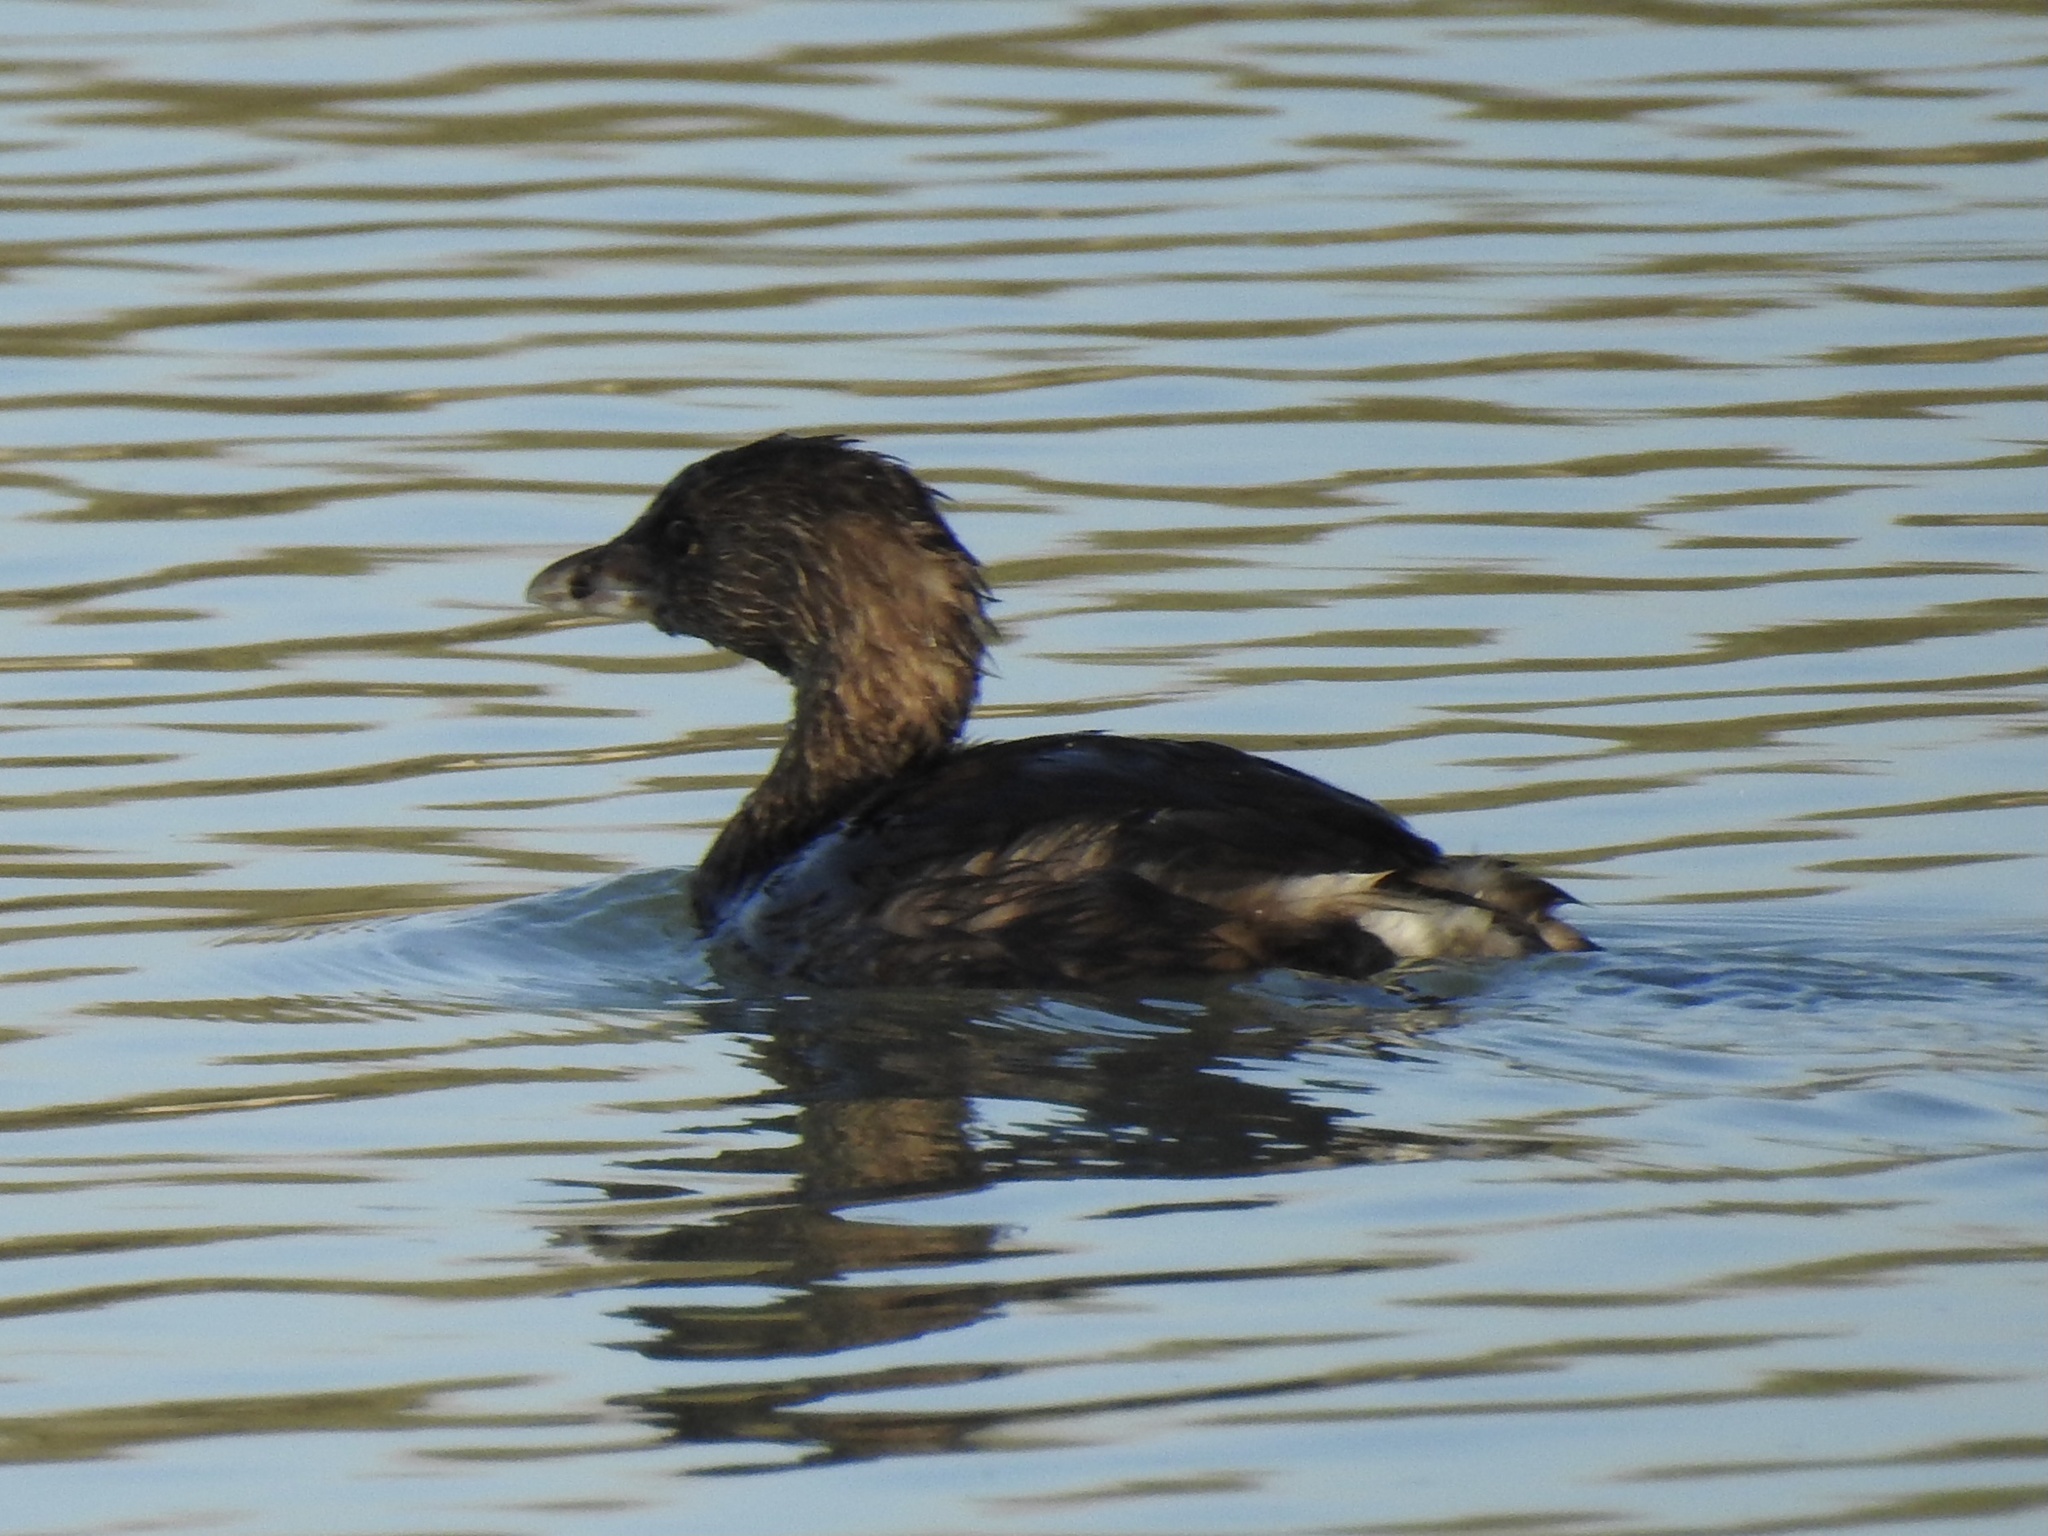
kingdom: Animalia
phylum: Chordata
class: Aves
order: Podicipediformes
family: Podicipedidae
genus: Podilymbus
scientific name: Podilymbus podiceps
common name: Pied-billed grebe
